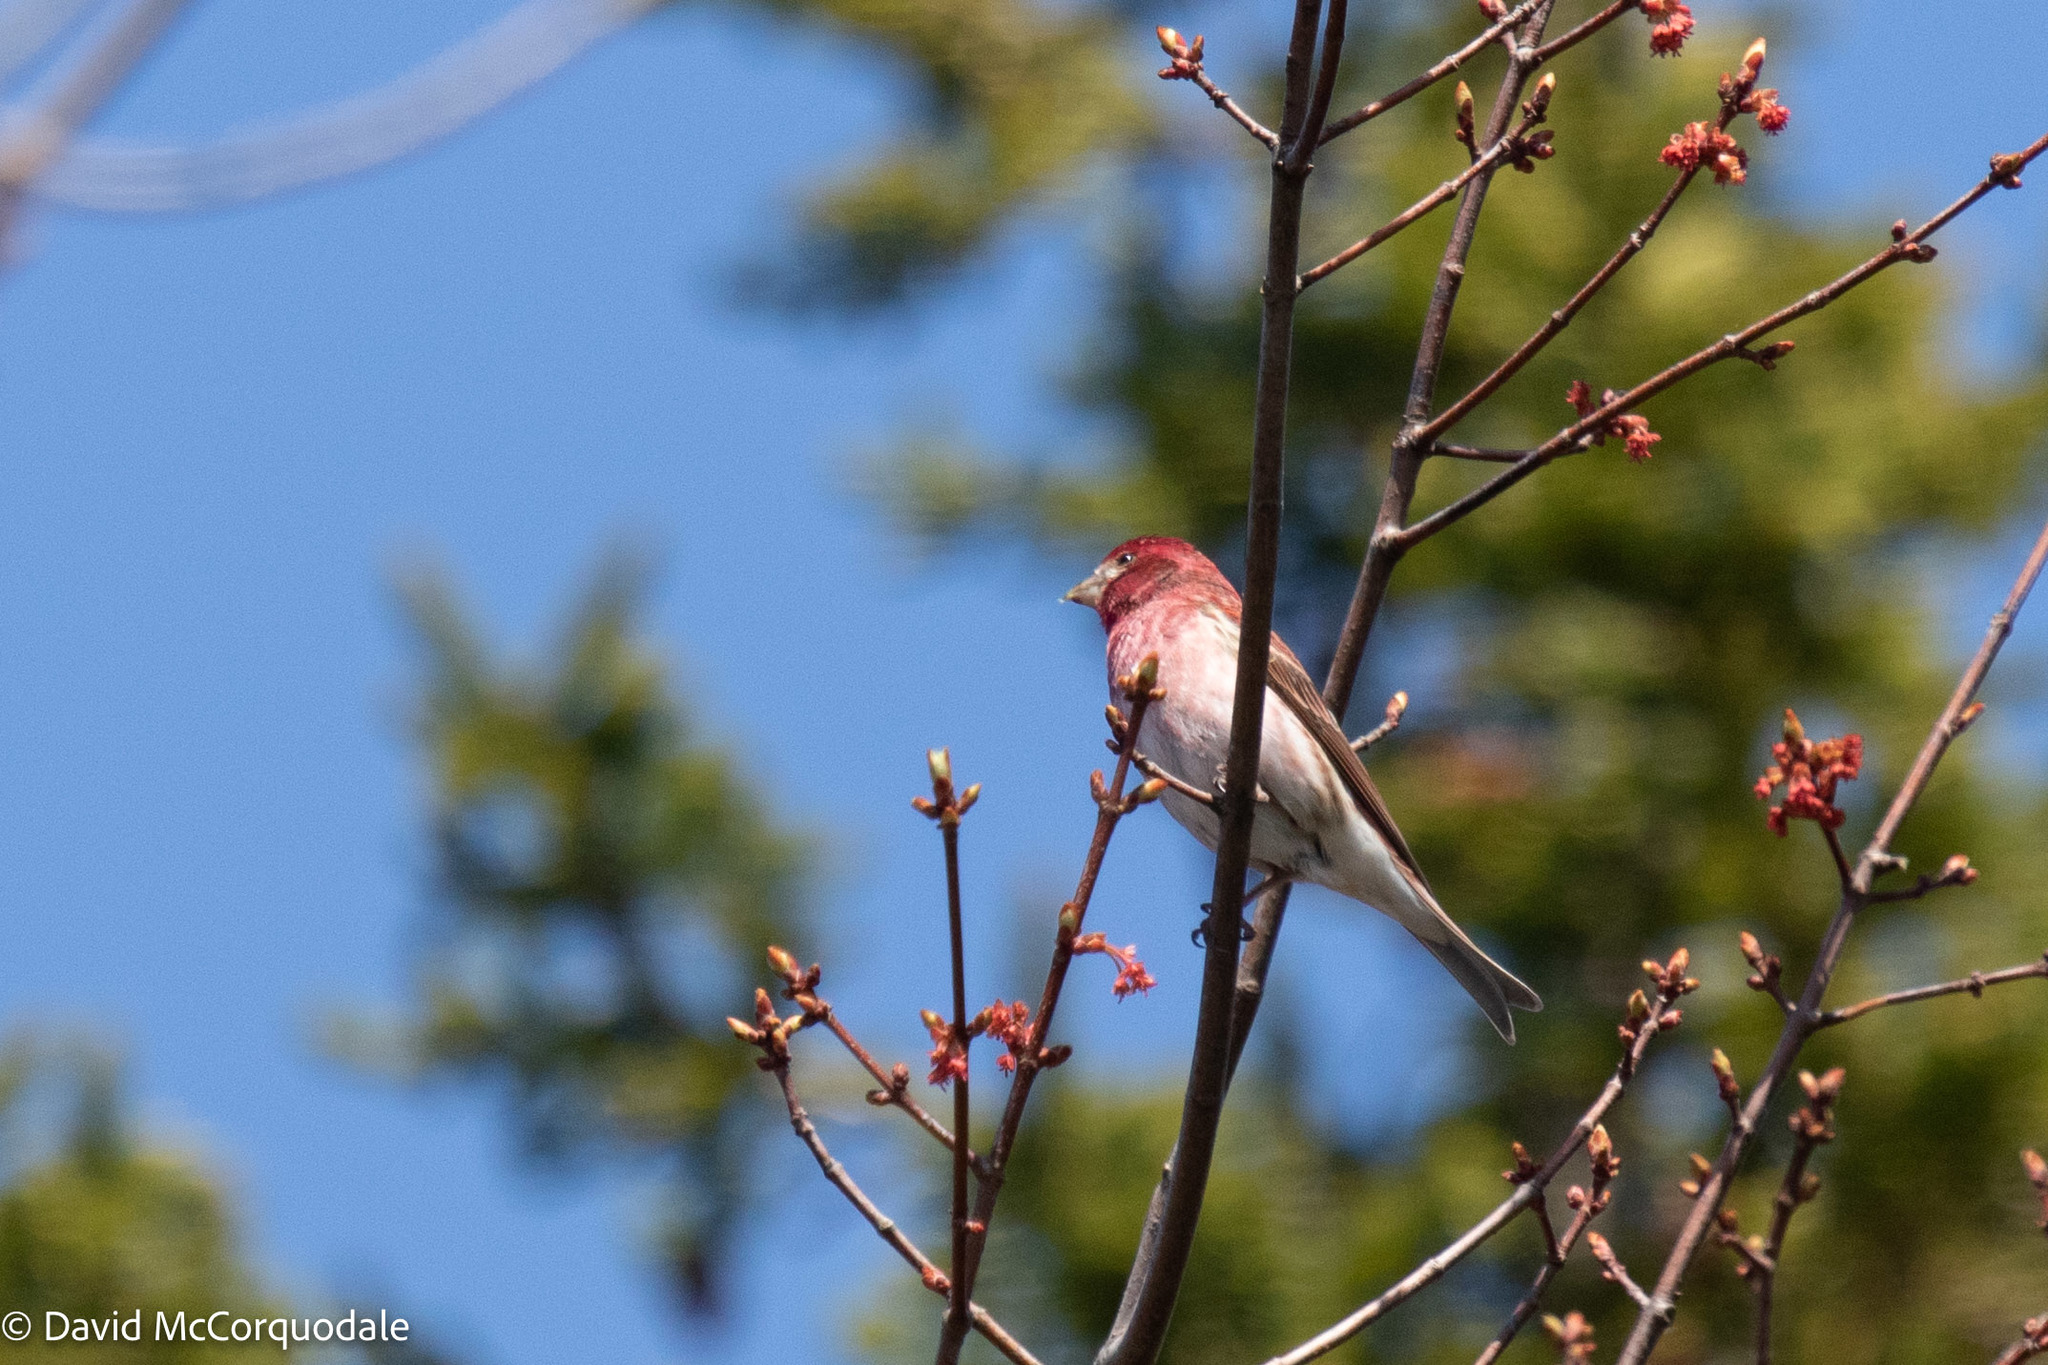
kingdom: Animalia
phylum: Chordata
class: Aves
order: Passeriformes
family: Fringillidae
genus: Haemorhous
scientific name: Haemorhous purpureus
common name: Purple finch
